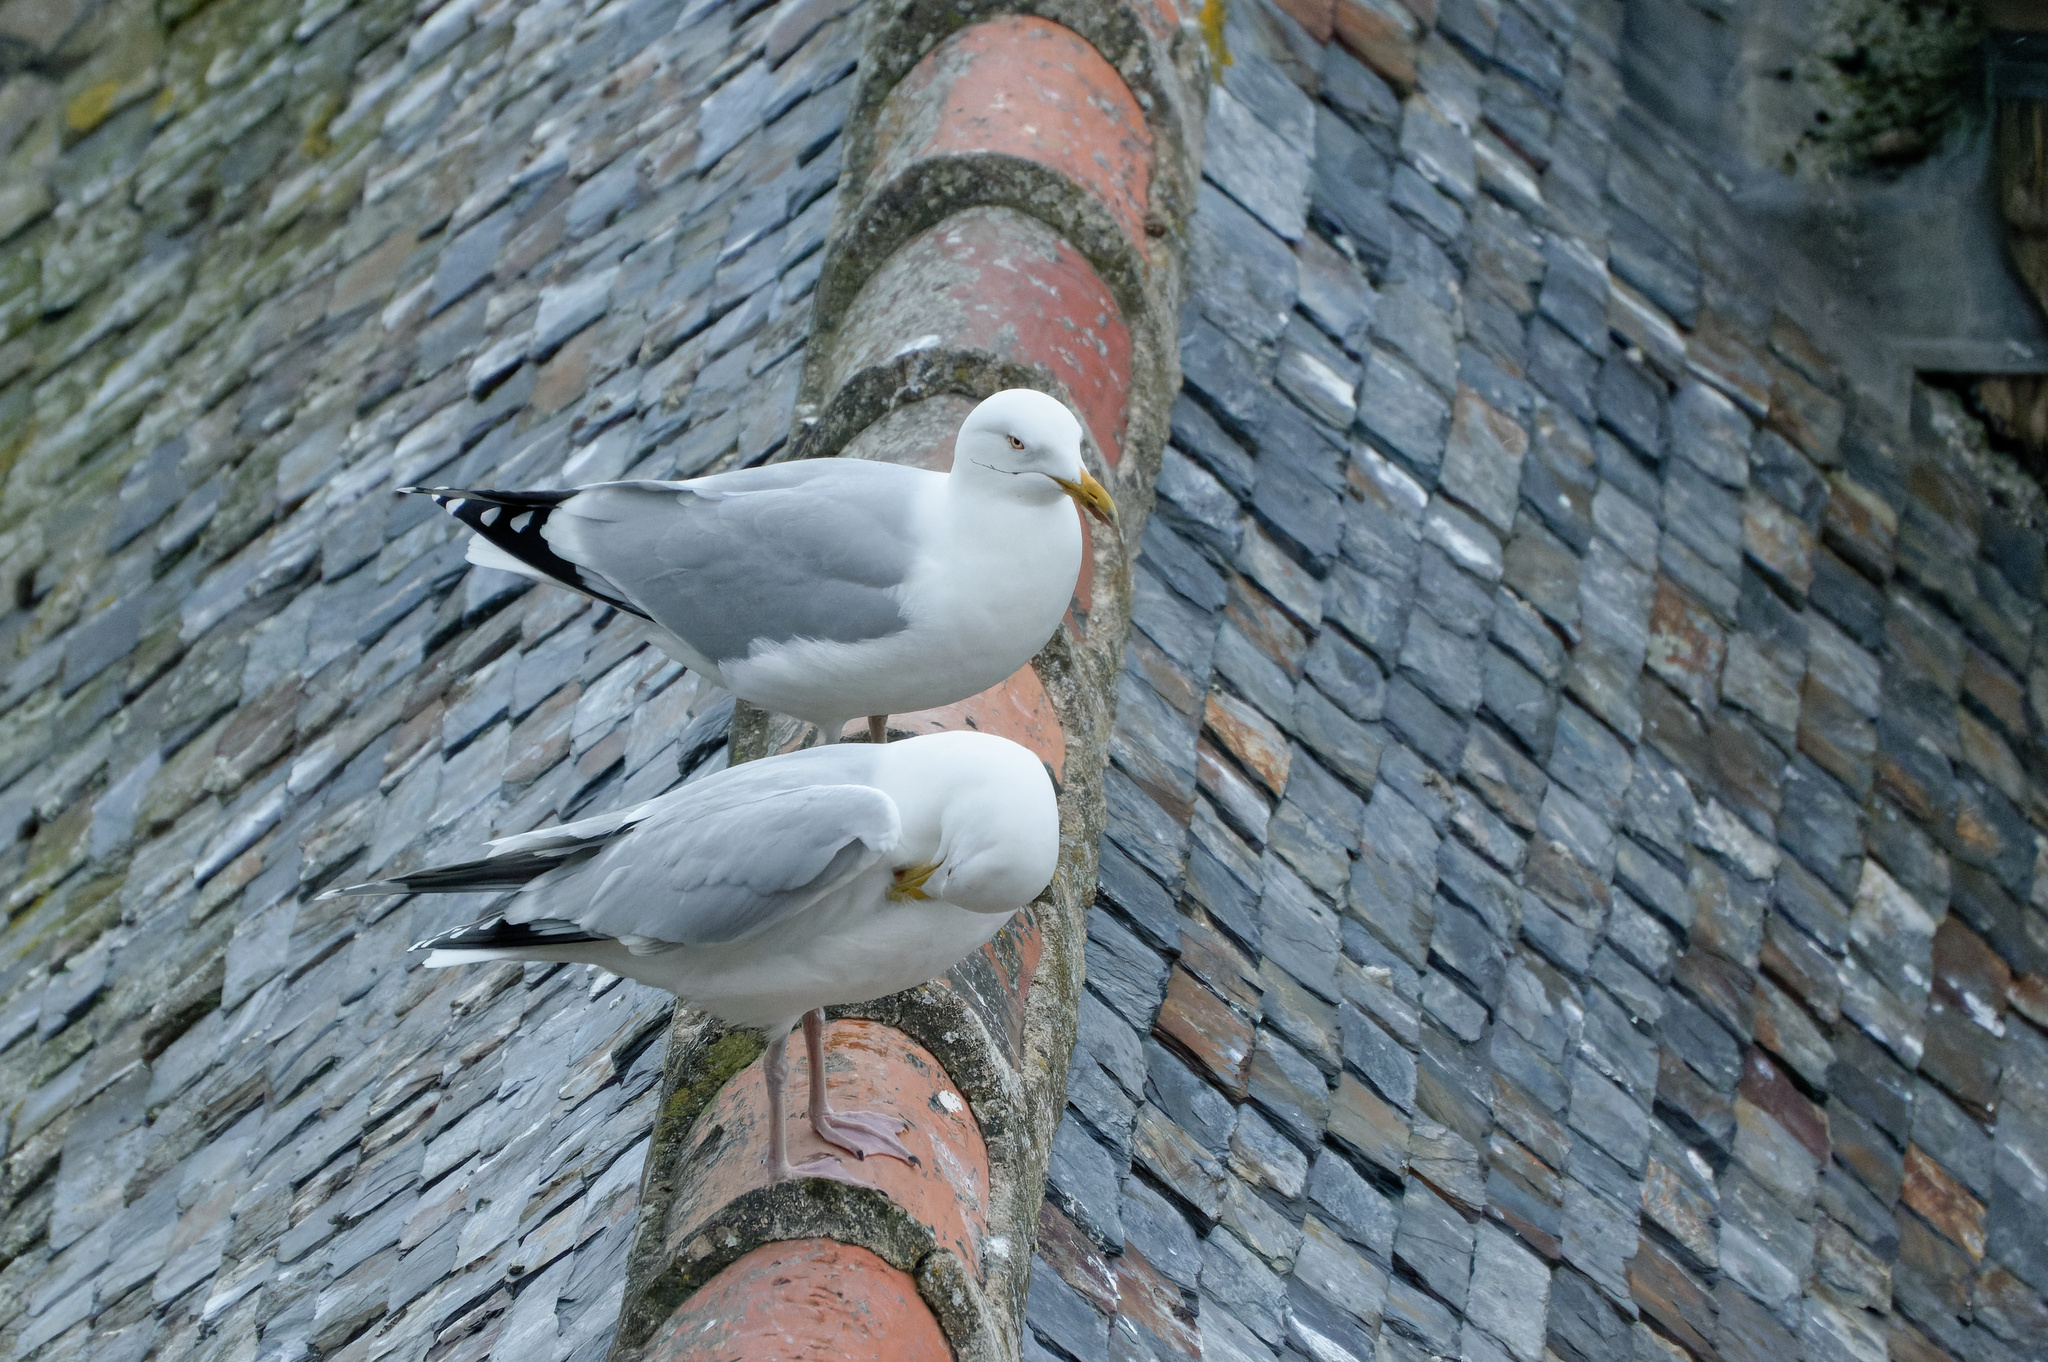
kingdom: Animalia
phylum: Chordata
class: Aves
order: Charadriiformes
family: Laridae
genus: Larus
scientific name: Larus argentatus
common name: Herring gull
